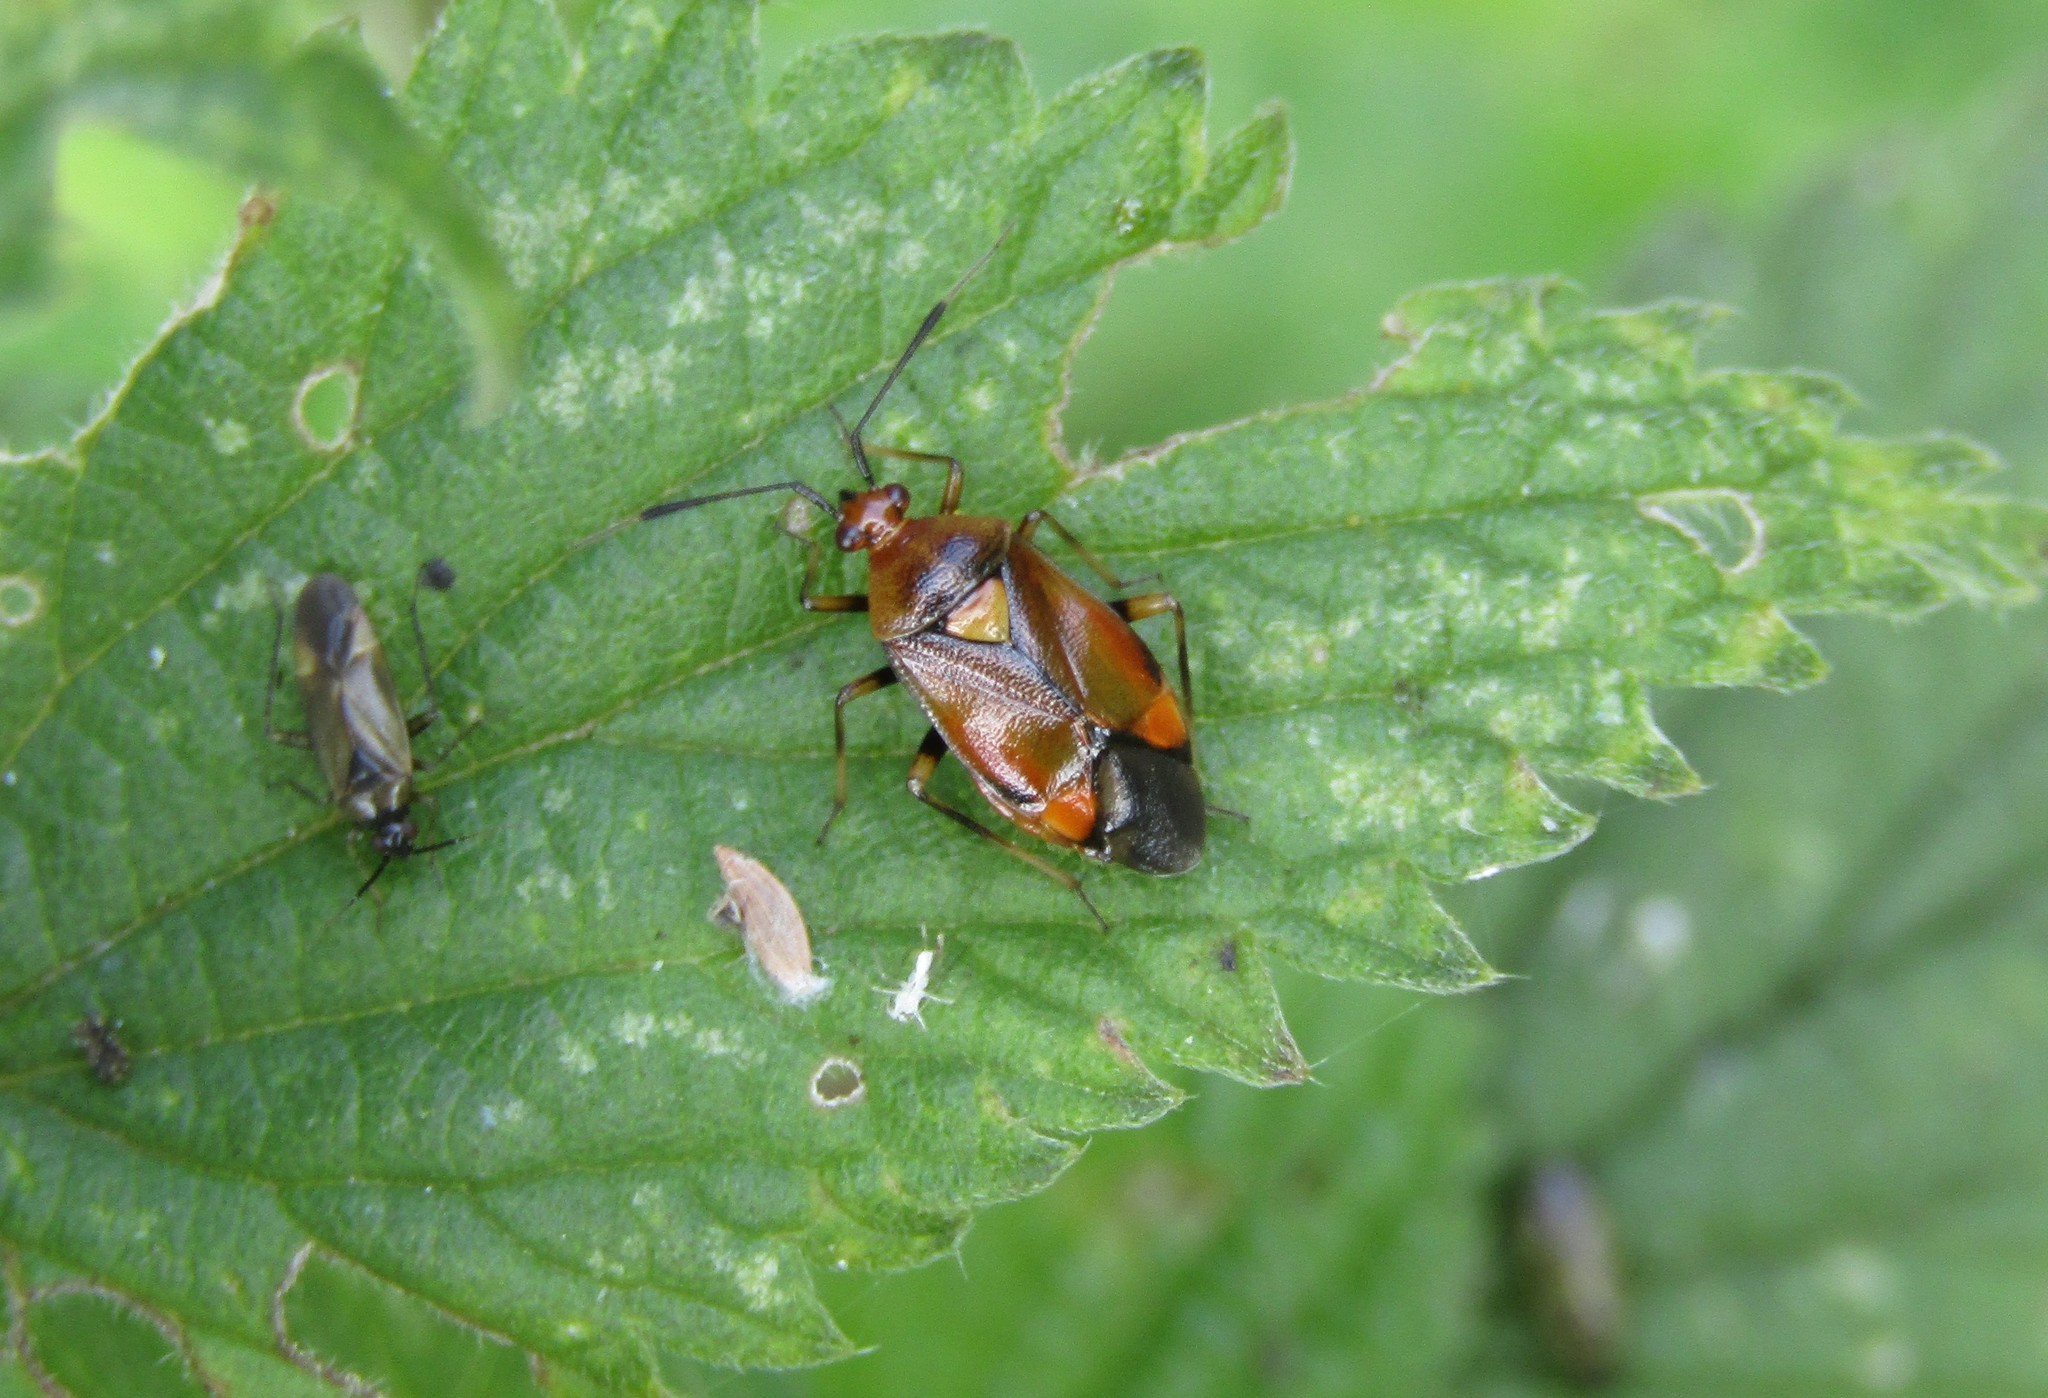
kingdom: Animalia
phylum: Arthropoda
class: Insecta
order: Hemiptera
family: Miridae
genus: Deraeocoris
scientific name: Deraeocoris ruber
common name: Plant bug
